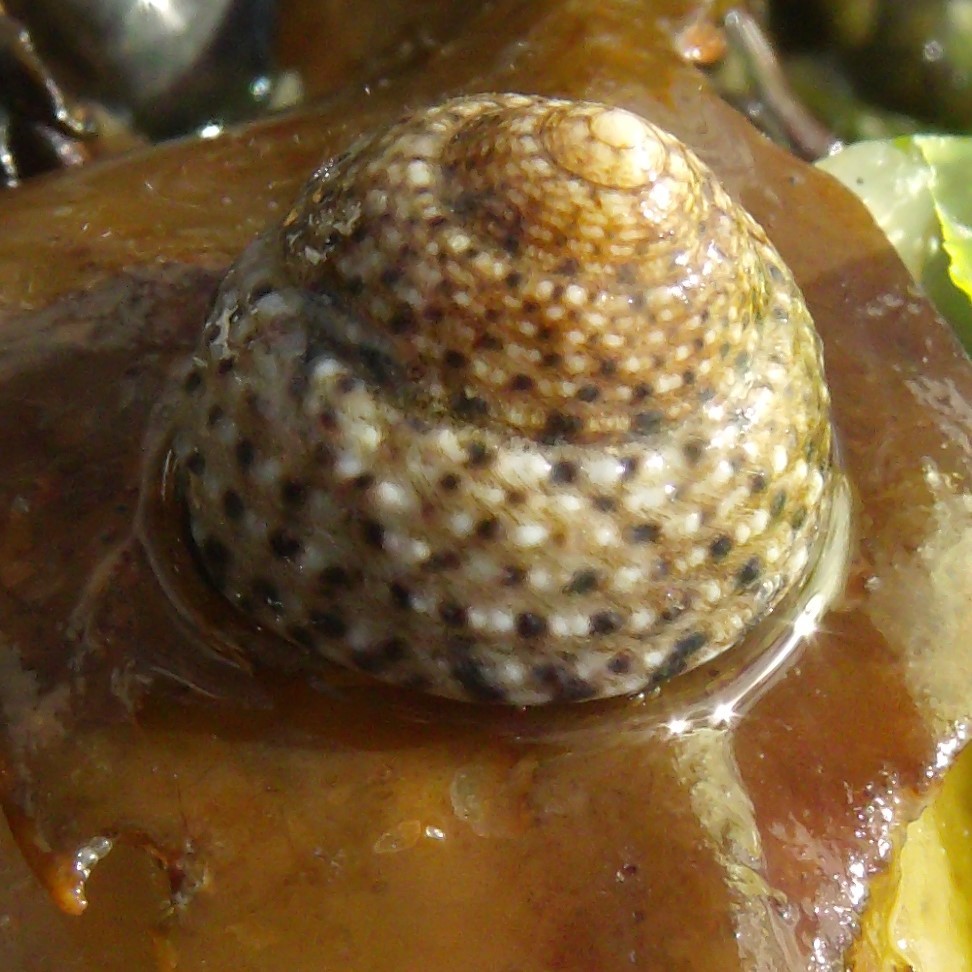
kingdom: Animalia
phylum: Mollusca
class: Gastropoda
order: Trochida
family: Trochidae
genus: Coelotrochus
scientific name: Coelotrochus tiaratus
